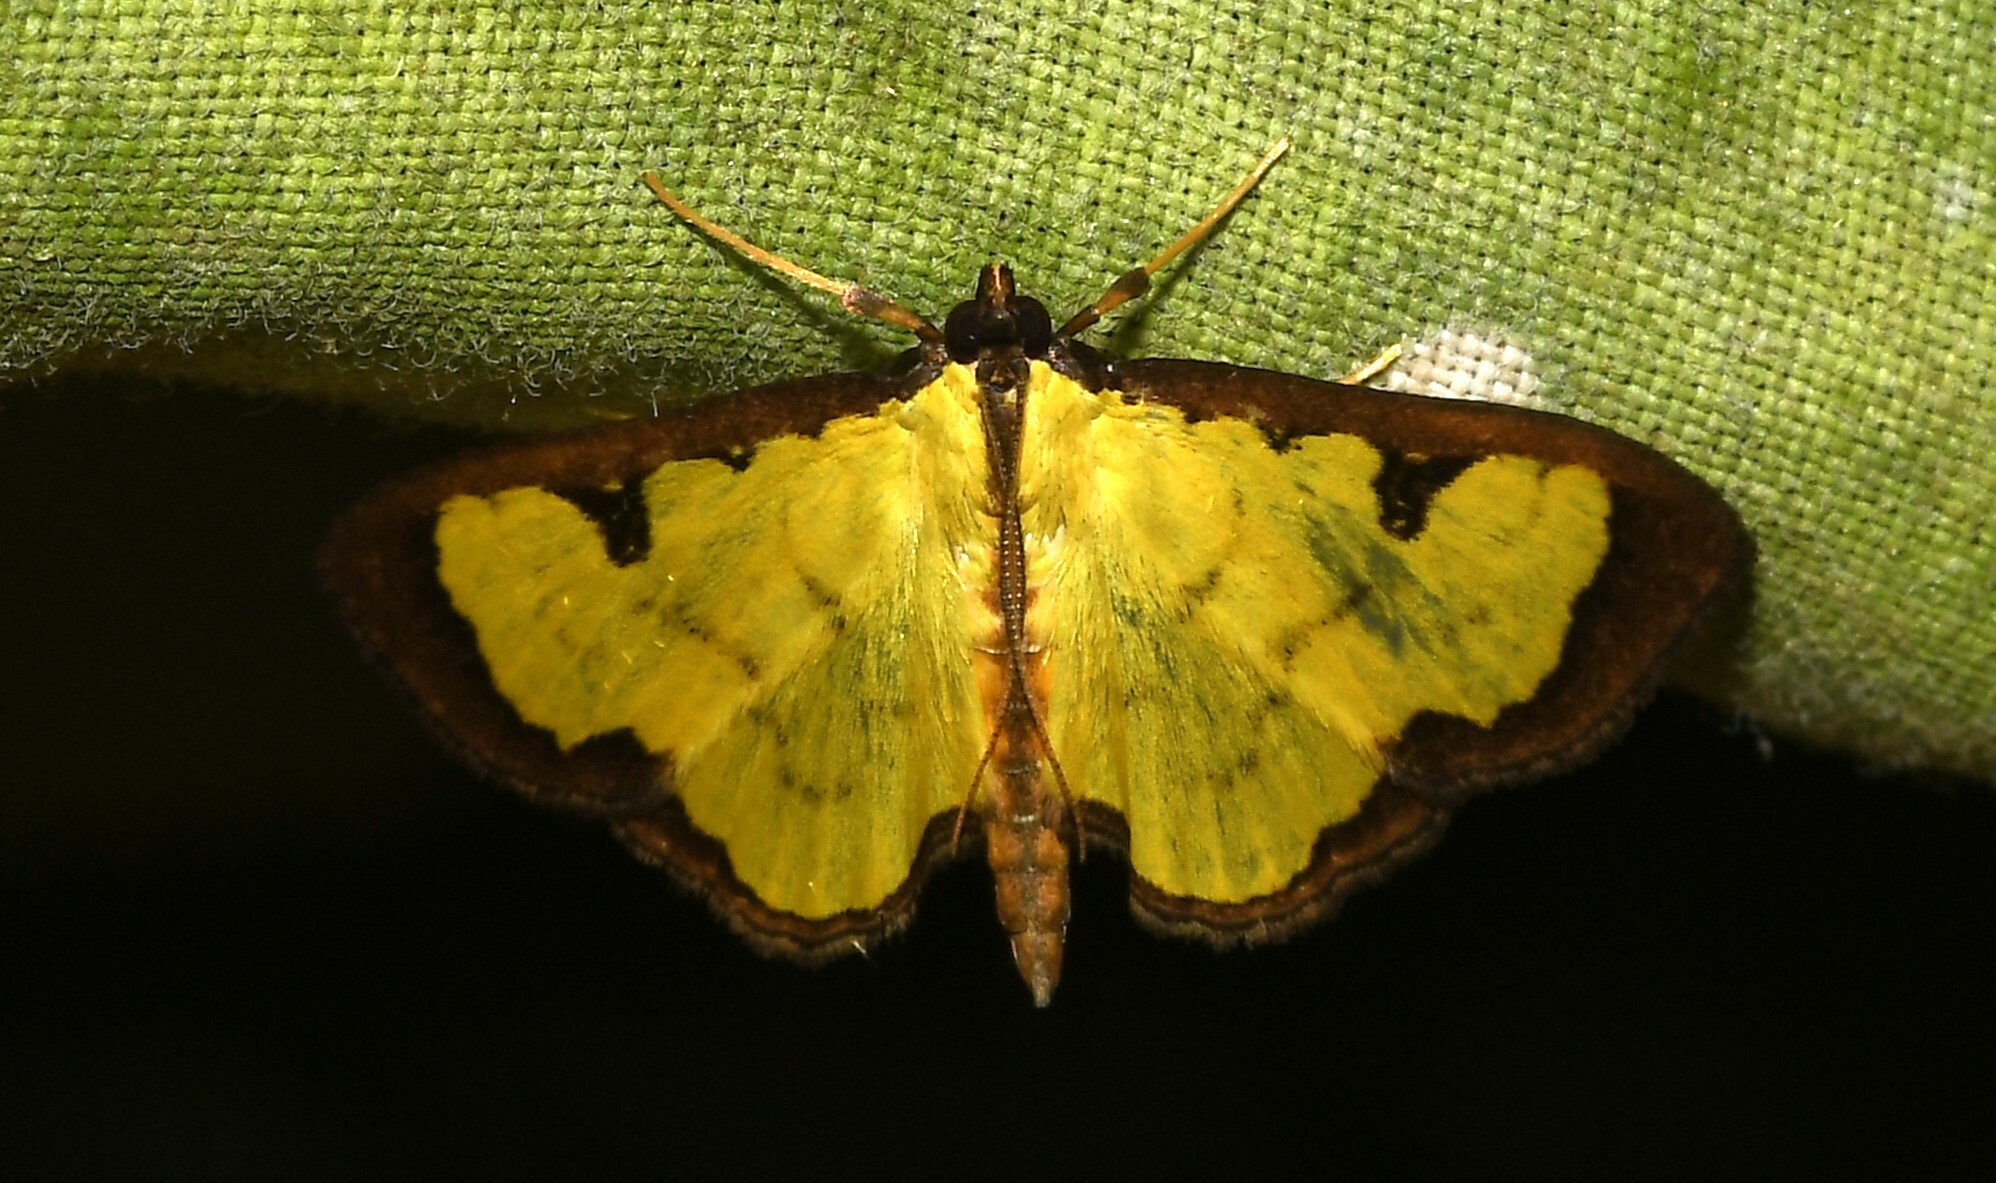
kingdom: Animalia
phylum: Arthropoda
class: Insecta
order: Lepidoptera
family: Crambidae
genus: Goniorhynchus
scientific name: Goniorhynchus
